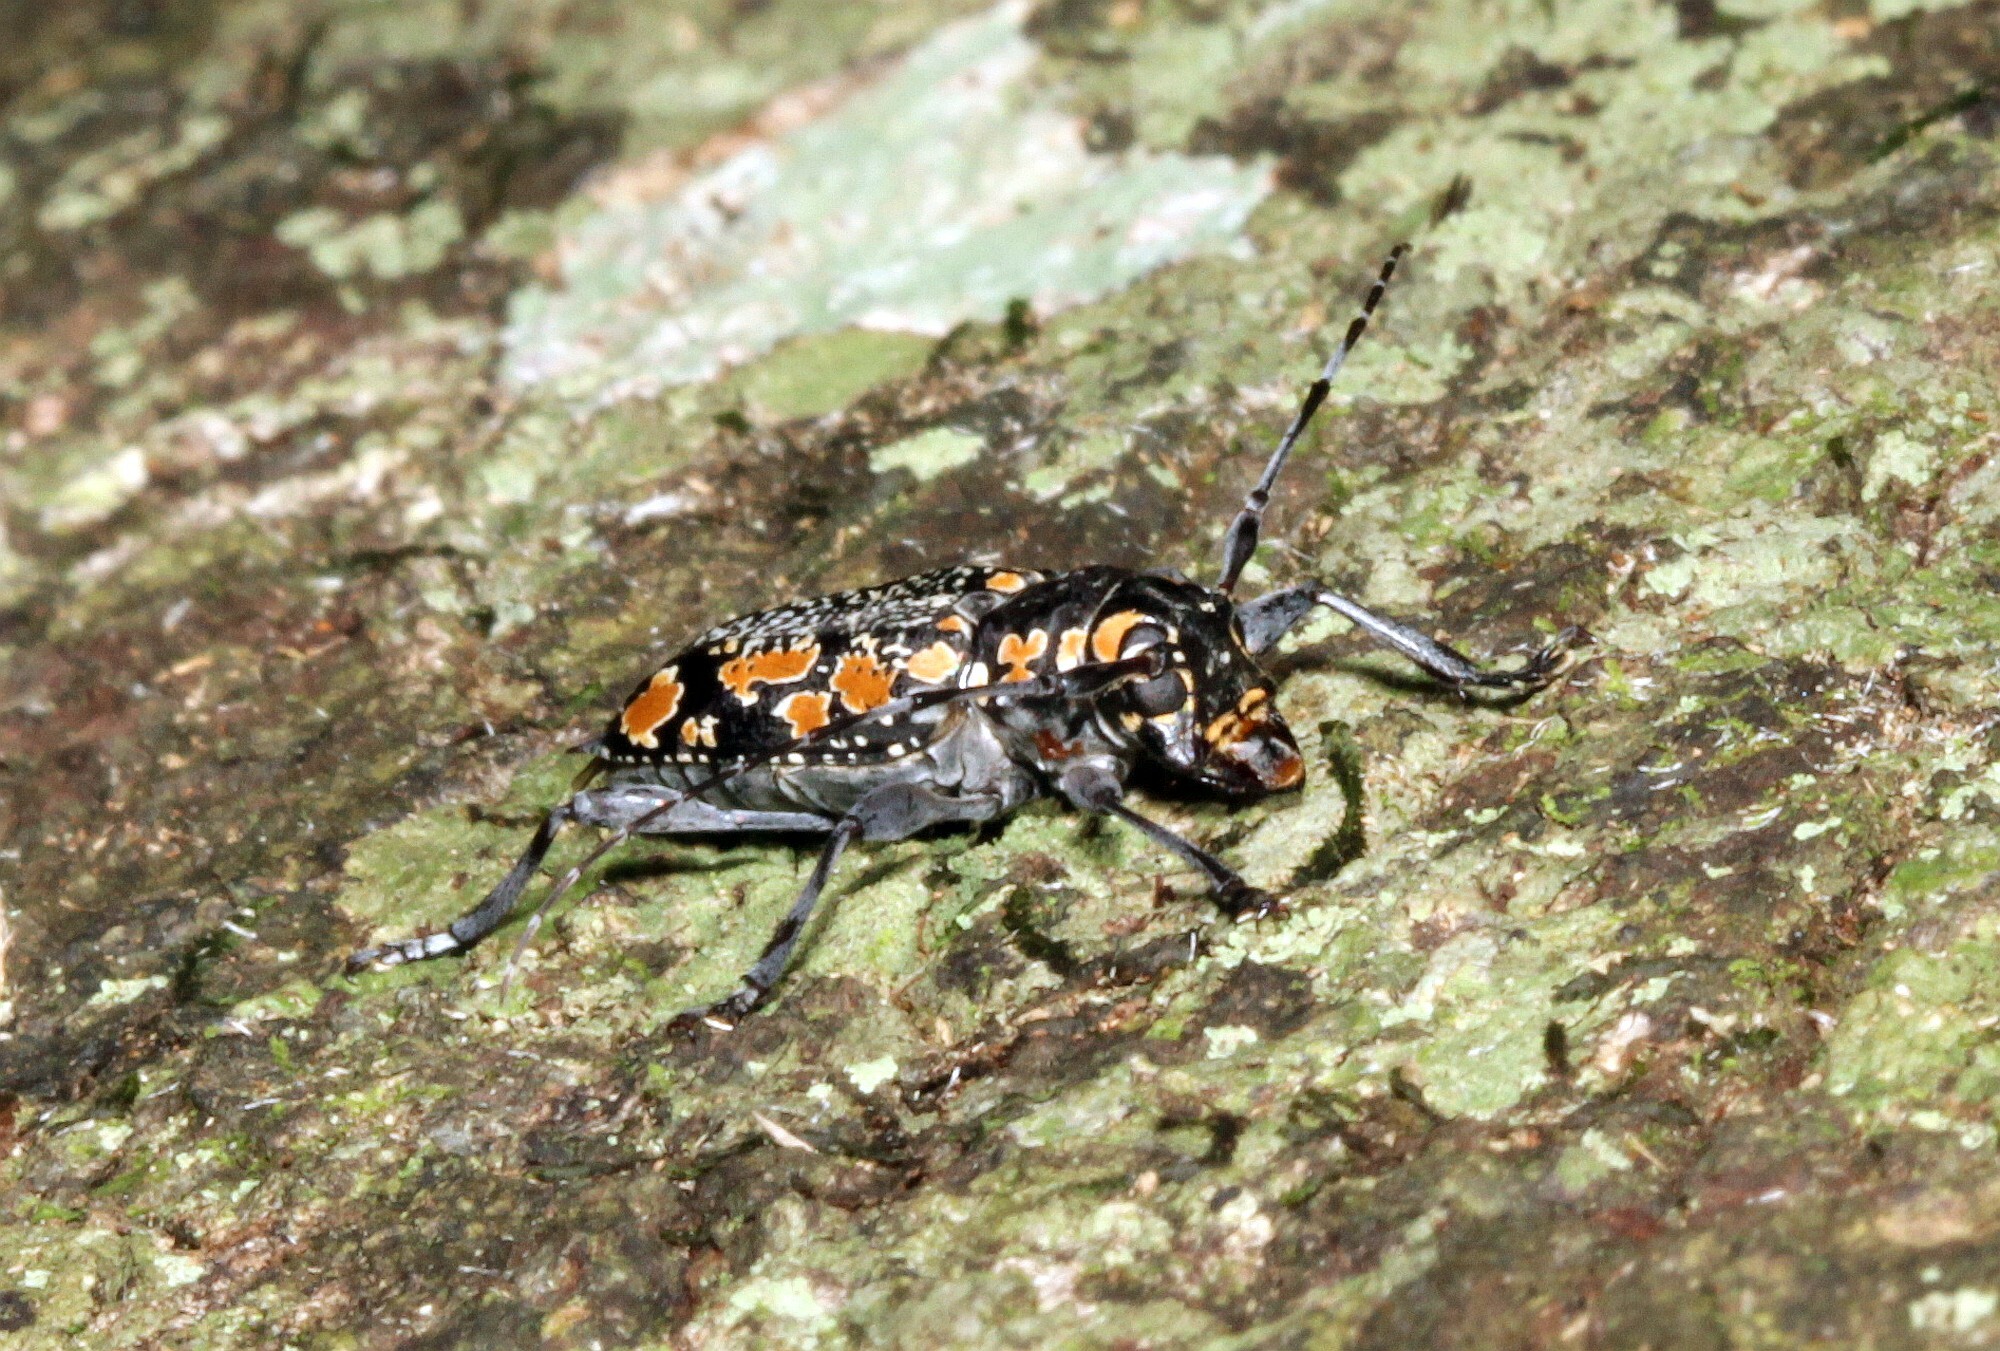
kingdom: Animalia
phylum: Arthropoda
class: Insecta
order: Coleoptera
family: Cerambycidae
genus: Aegomorphus
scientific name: Aegomorphus
